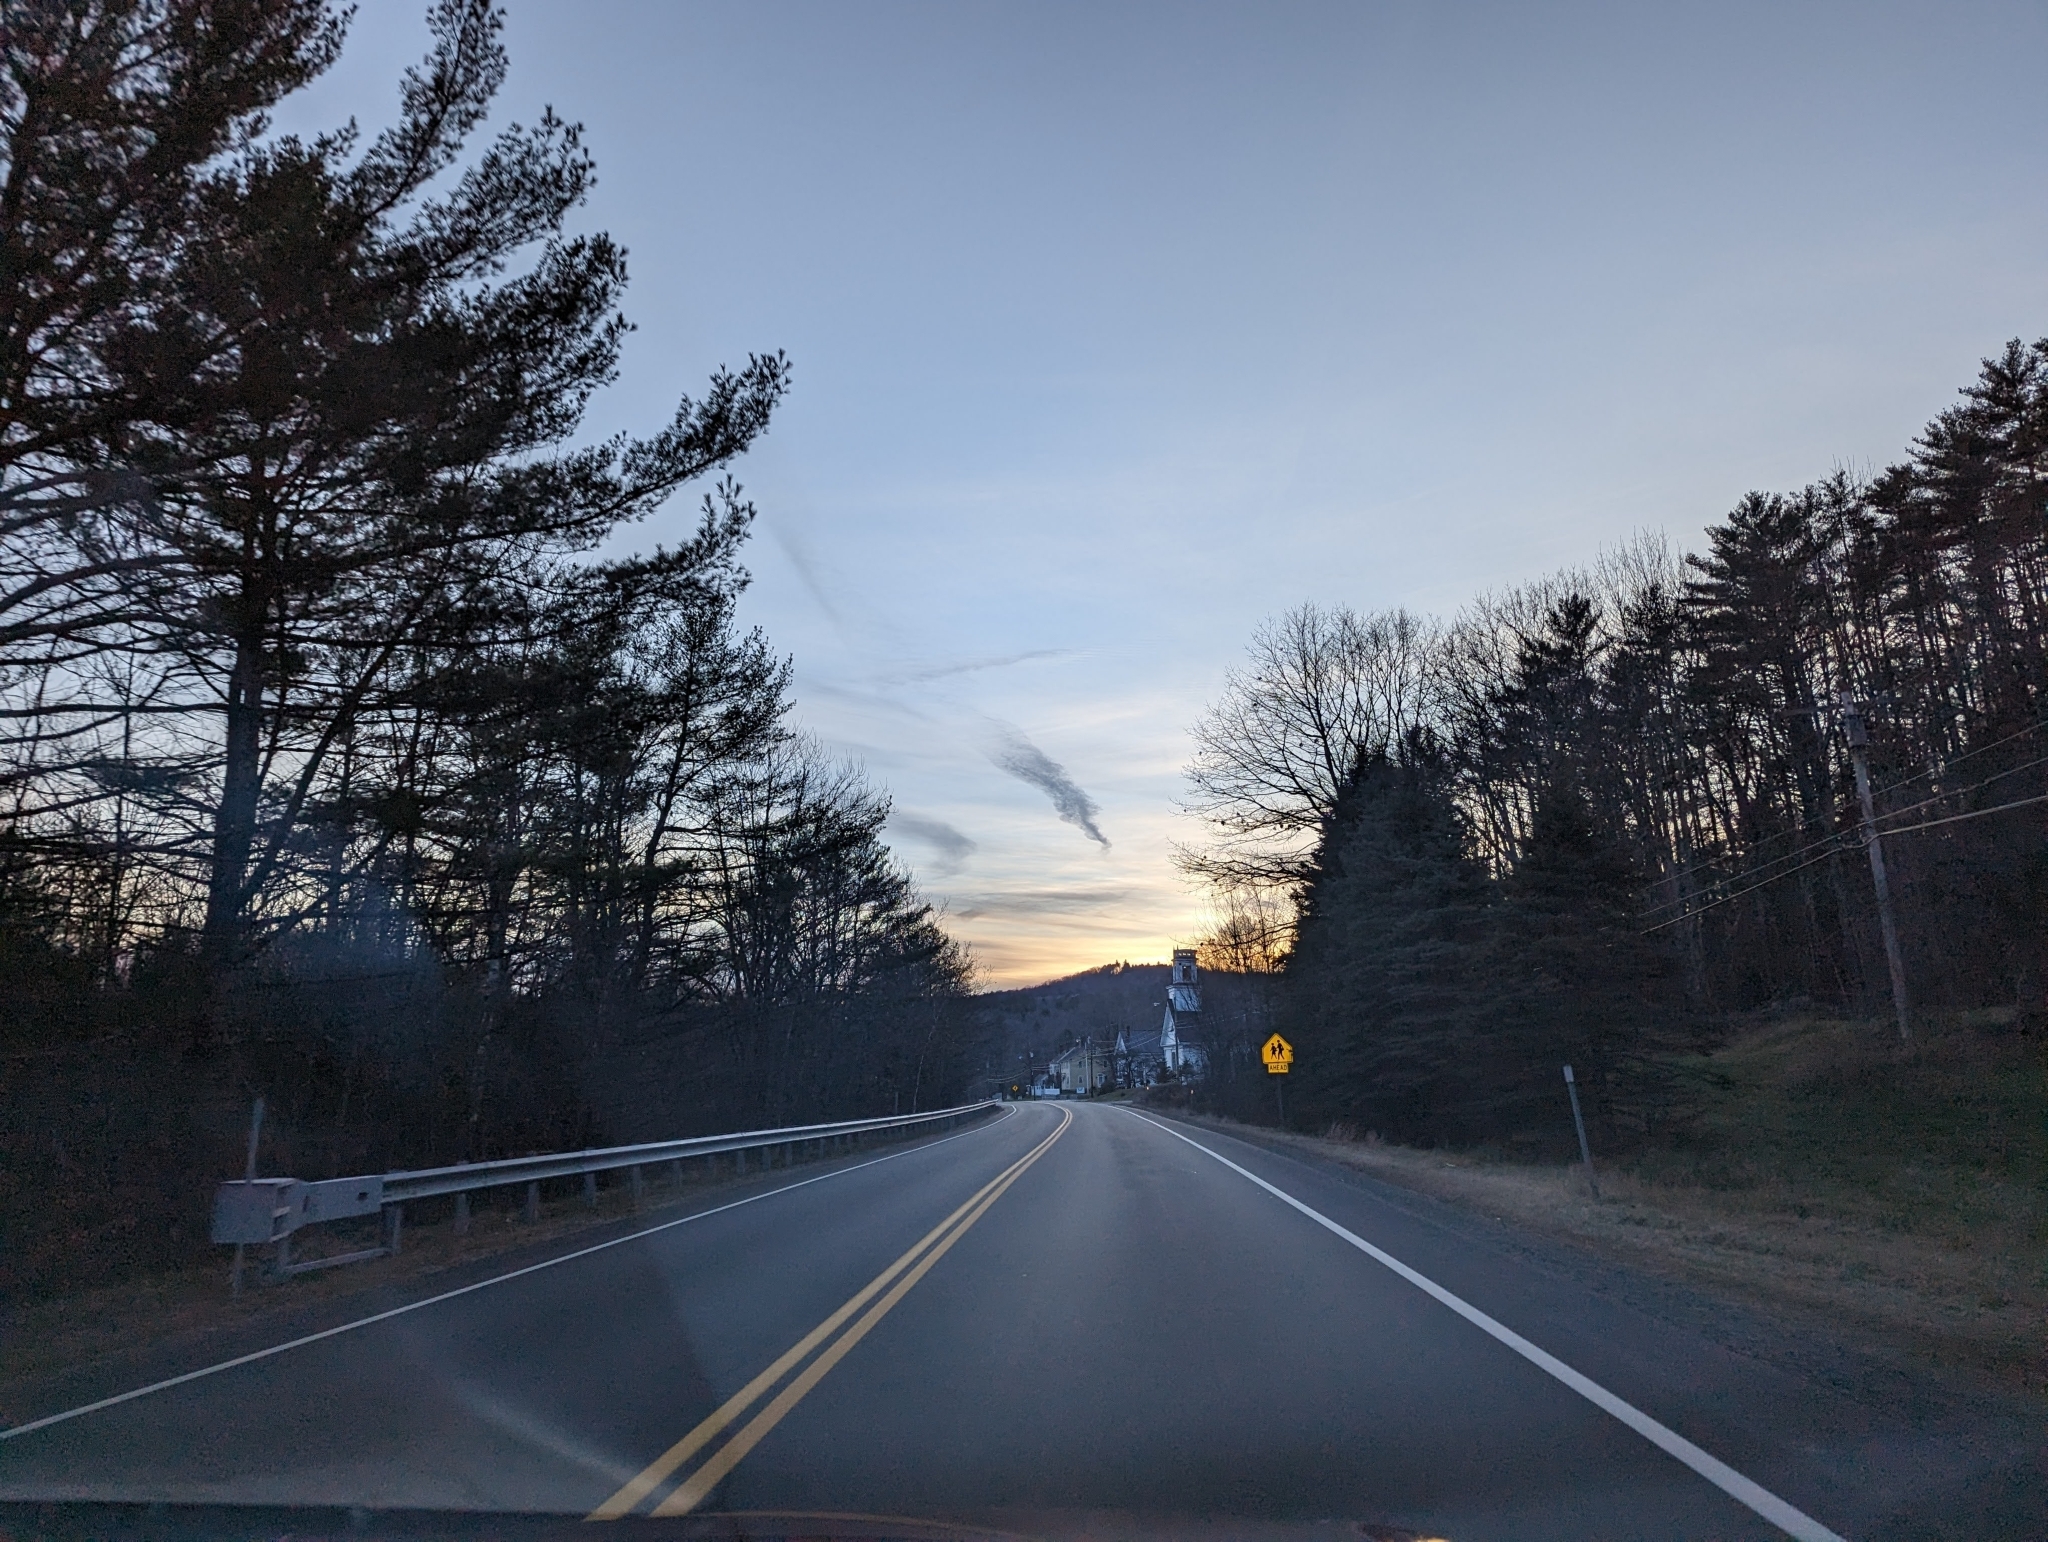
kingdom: Plantae
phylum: Tracheophyta
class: Pinopsida
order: Pinales
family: Pinaceae
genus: Pinus
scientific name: Pinus strobus
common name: Weymouth pine
